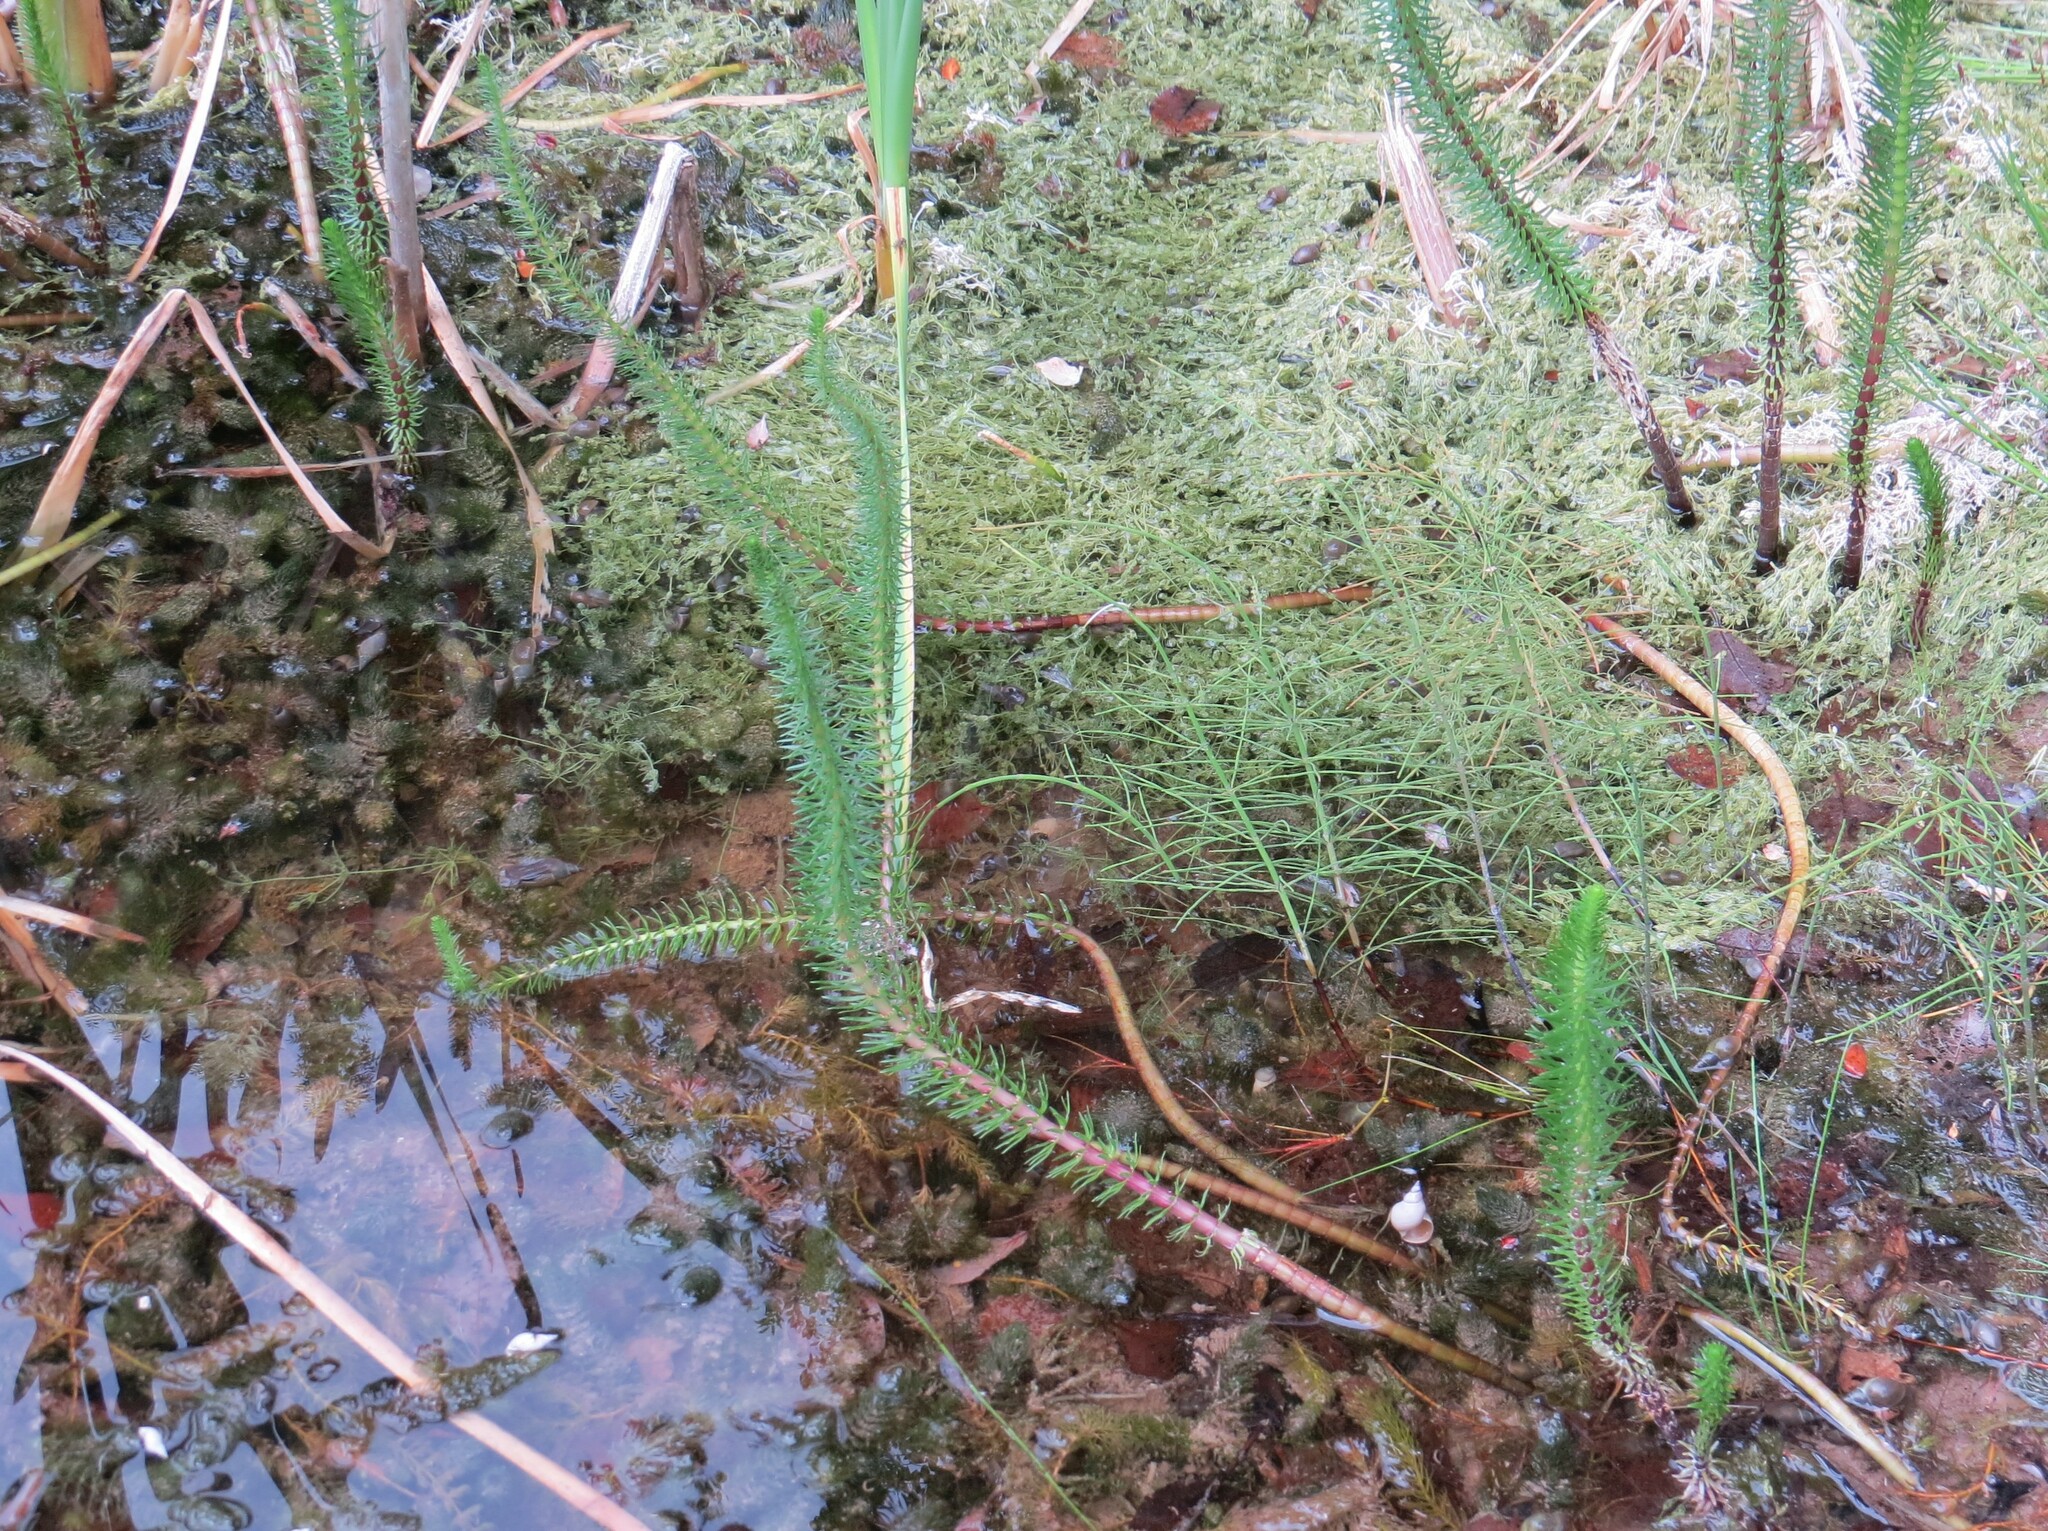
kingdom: Plantae
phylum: Tracheophyta
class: Magnoliopsida
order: Lamiales
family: Plantaginaceae
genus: Hippuris
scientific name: Hippuris vulgaris
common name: Mare's-tail
